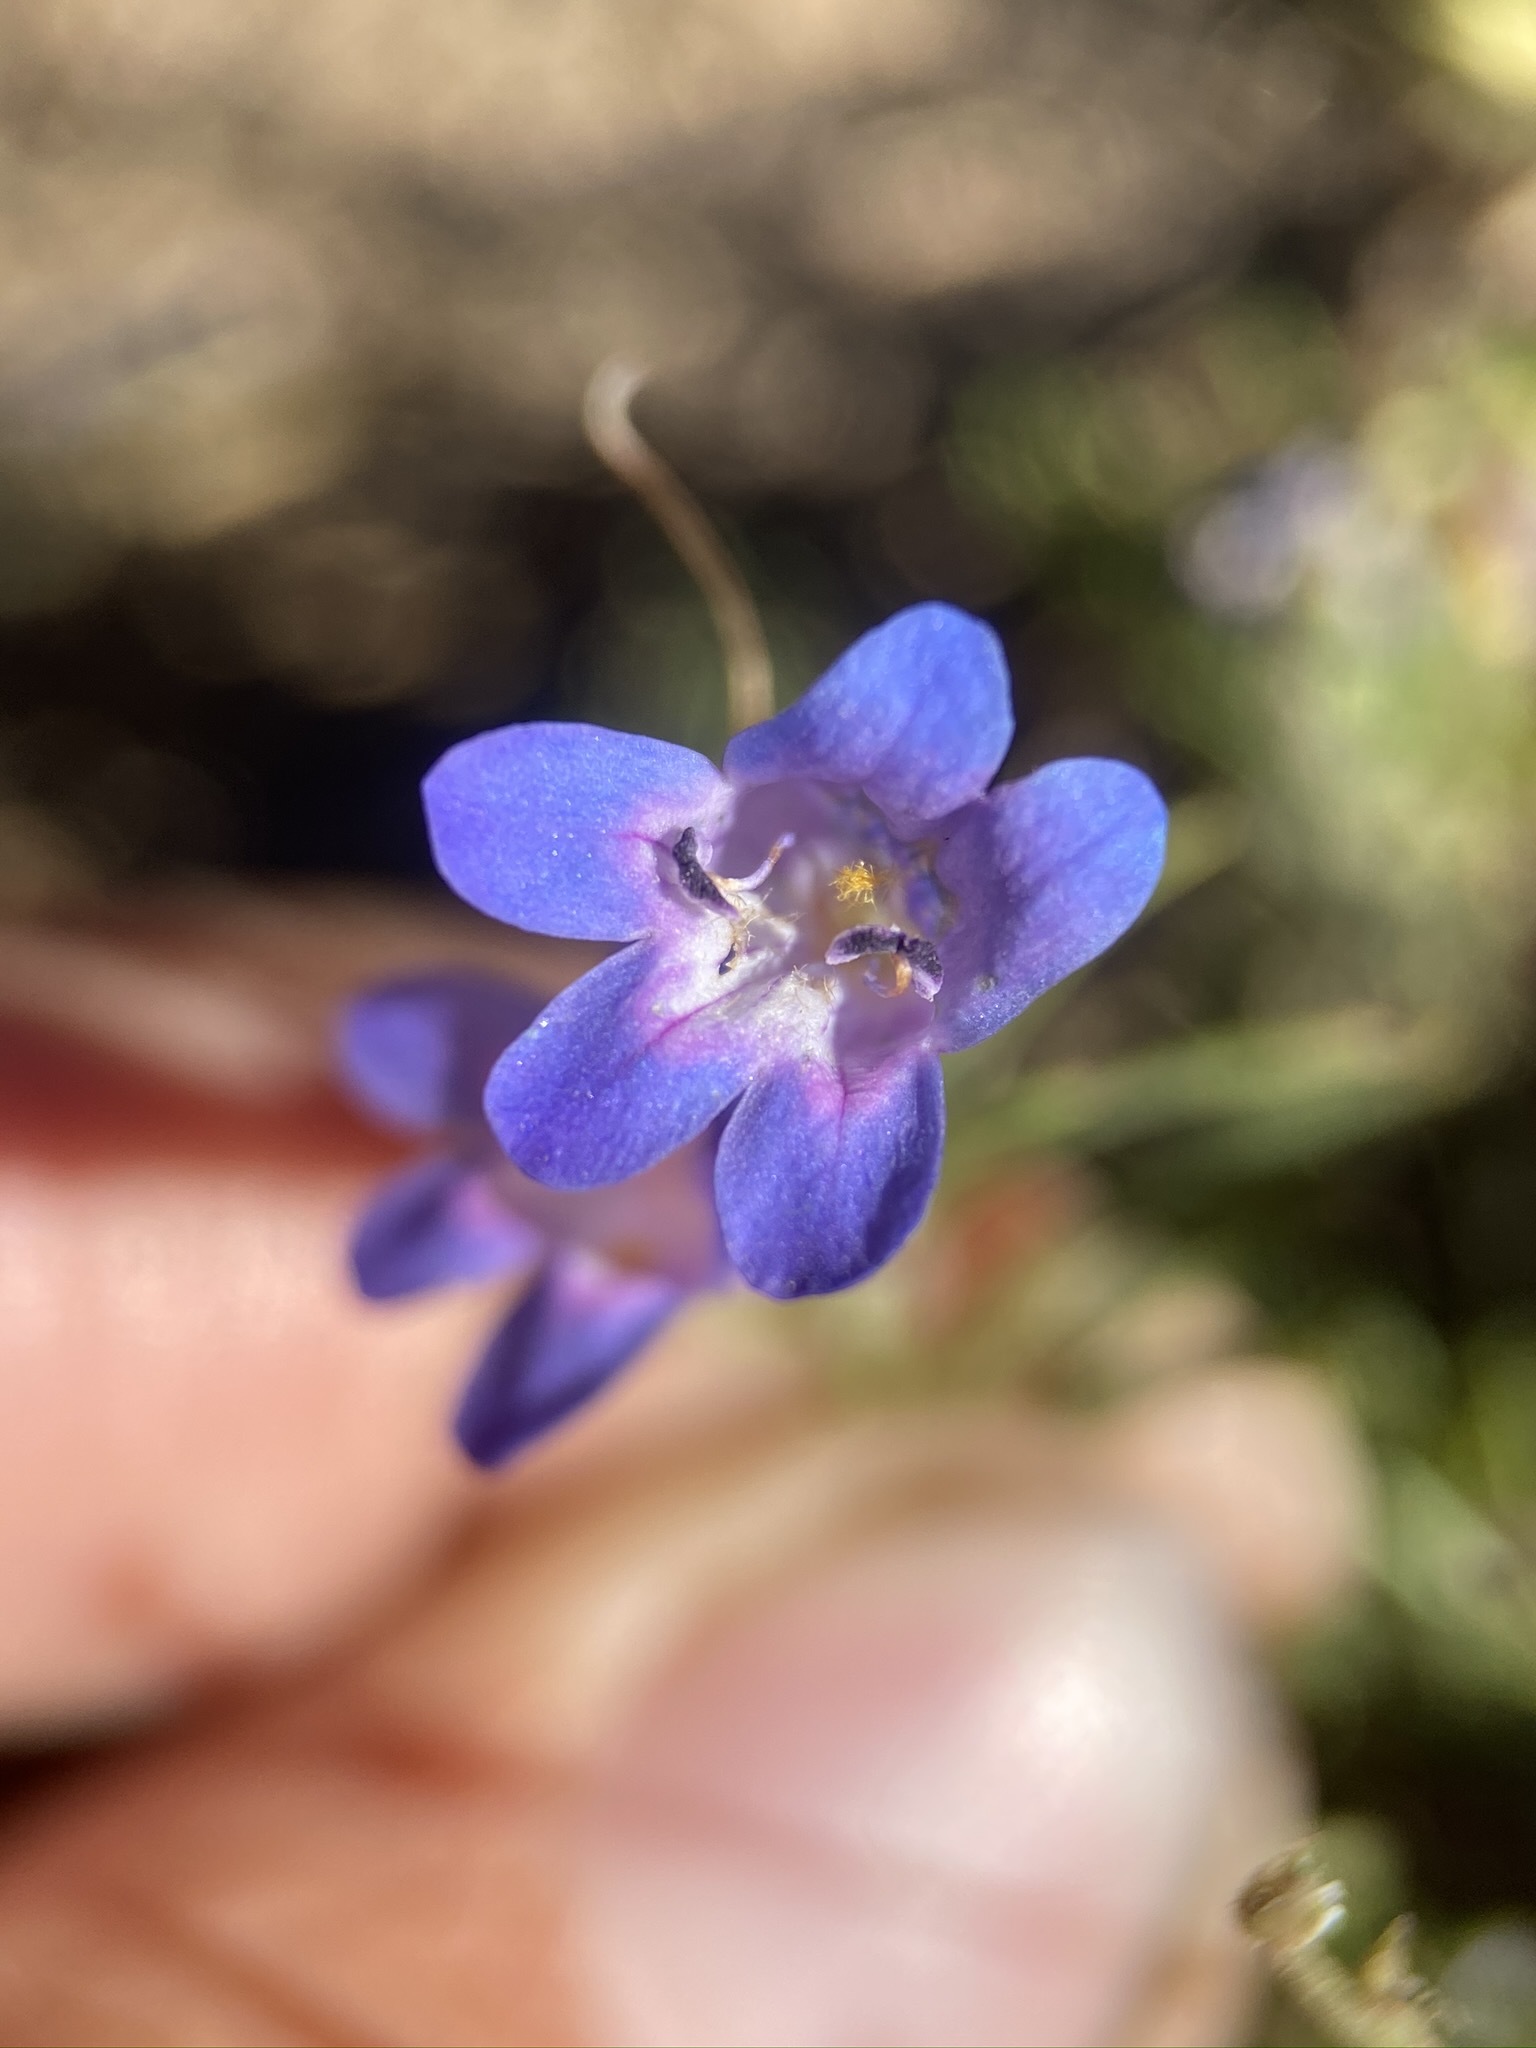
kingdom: Plantae
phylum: Tracheophyta
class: Magnoliopsida
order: Lamiales
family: Plantaginaceae
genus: Penstemon
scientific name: Penstemon linarioides
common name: Siler's penstemon
